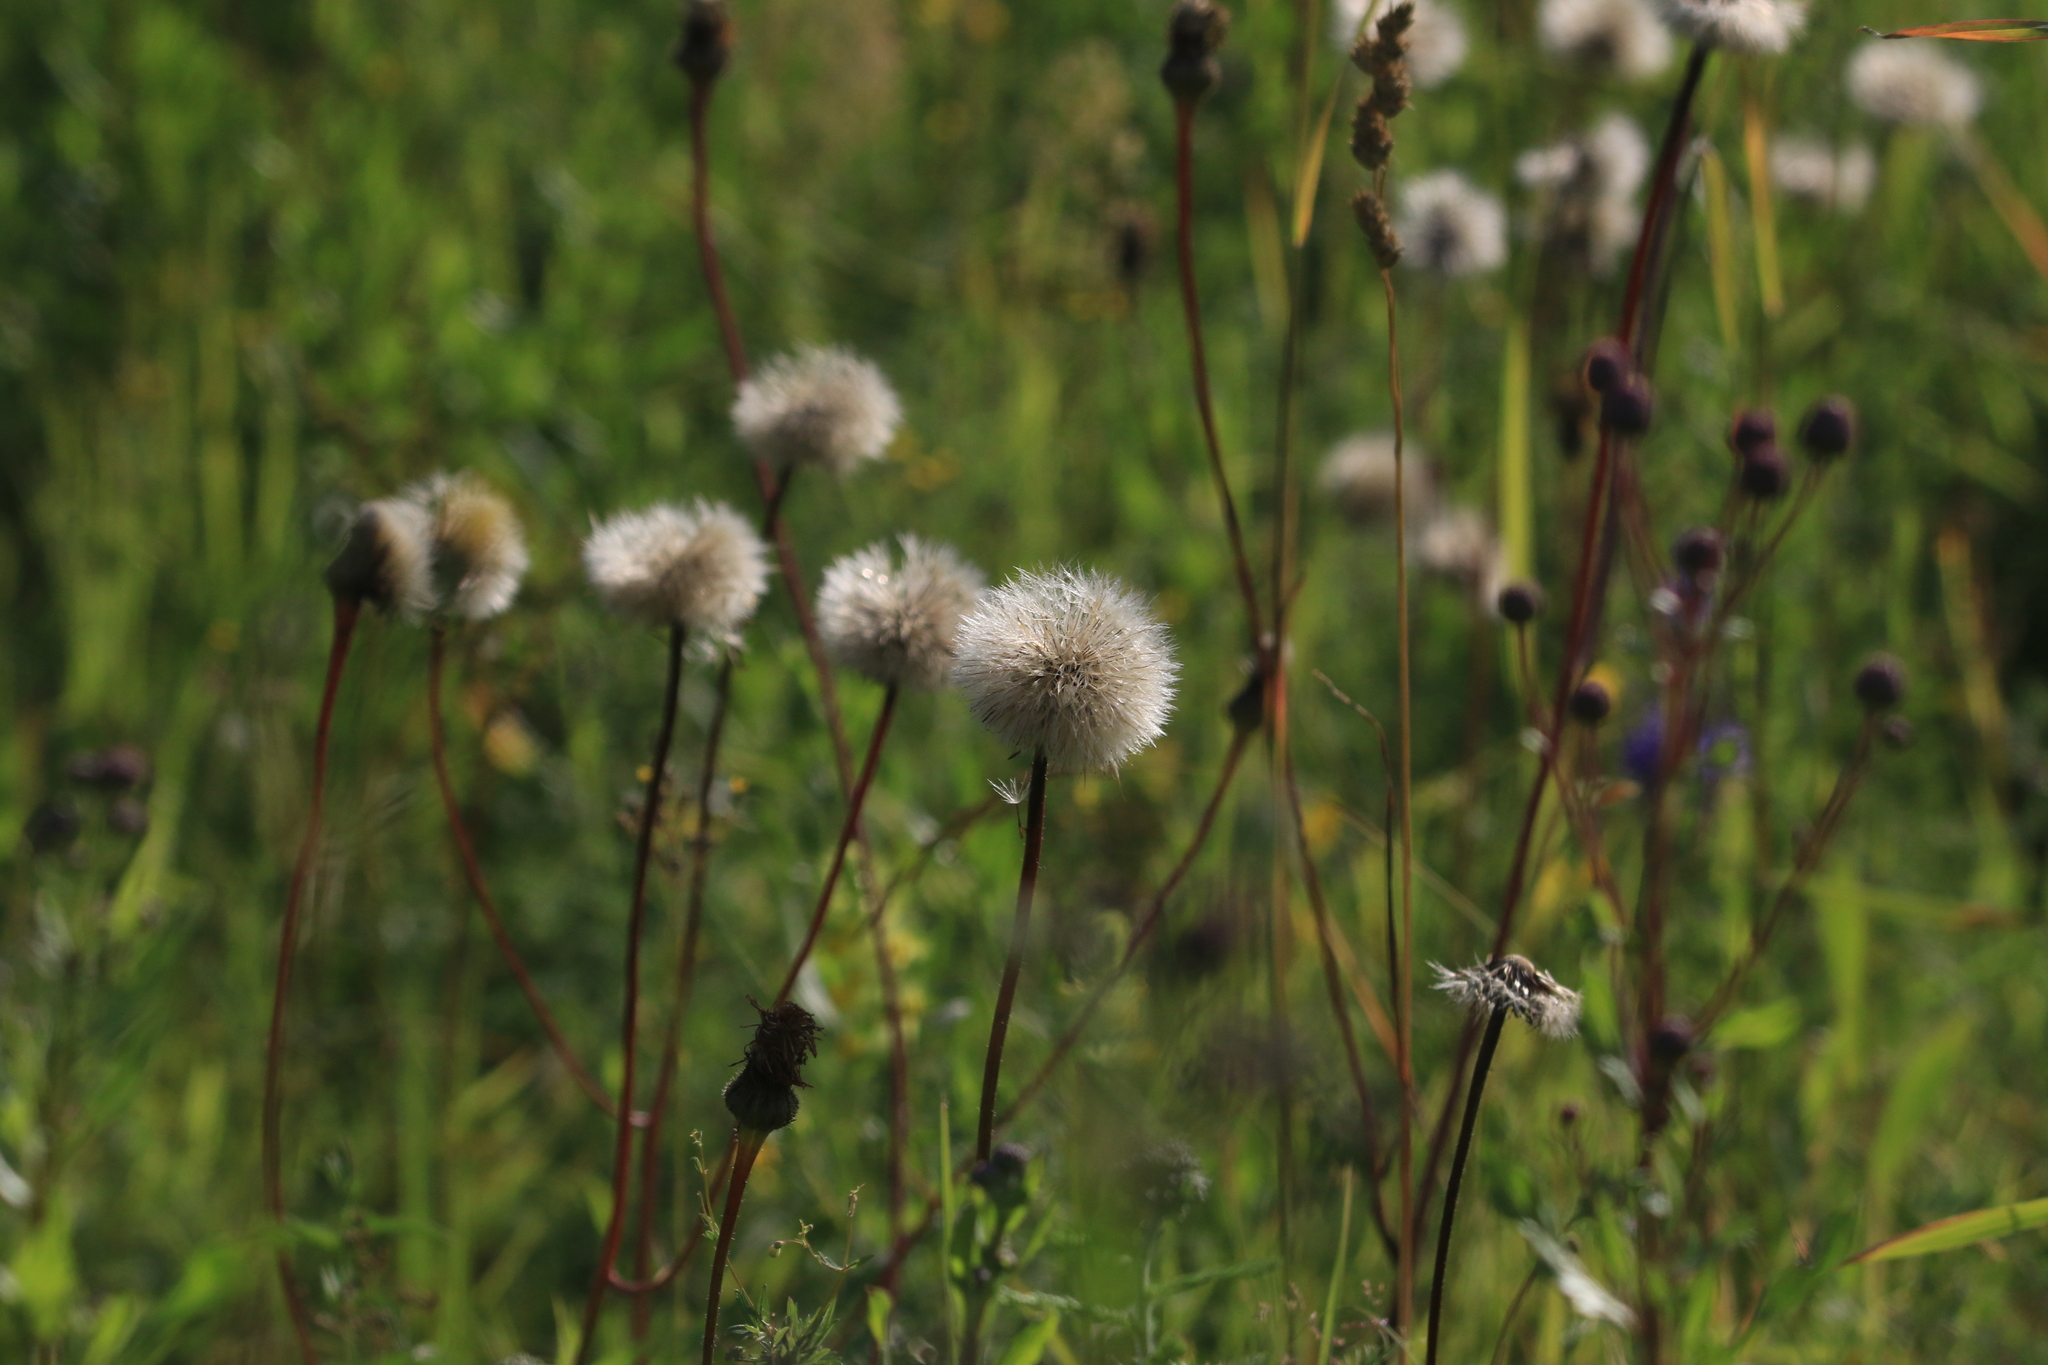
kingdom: Plantae
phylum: Tracheophyta
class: Magnoliopsida
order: Asterales
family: Asteraceae
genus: Trommsdorffia
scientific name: Trommsdorffia maculata
